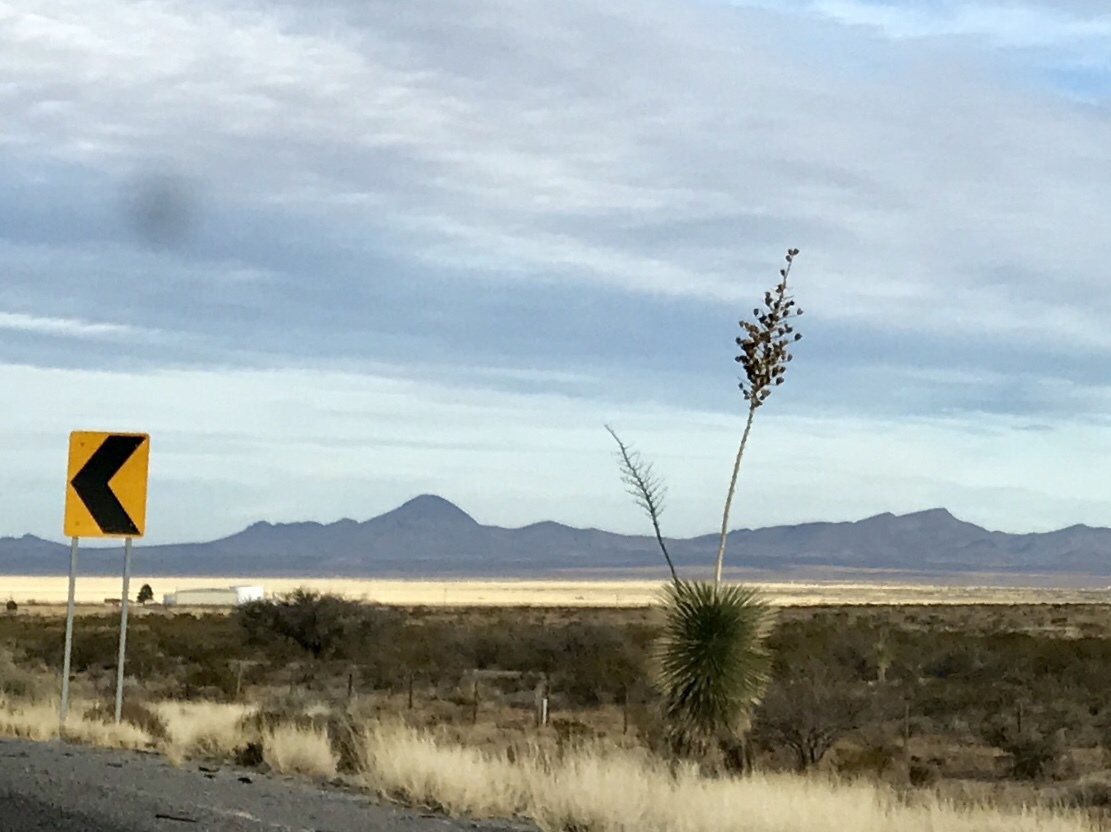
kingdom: Plantae
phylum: Tracheophyta
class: Liliopsida
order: Asparagales
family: Asparagaceae
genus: Yucca
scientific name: Yucca elata
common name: Palmella
